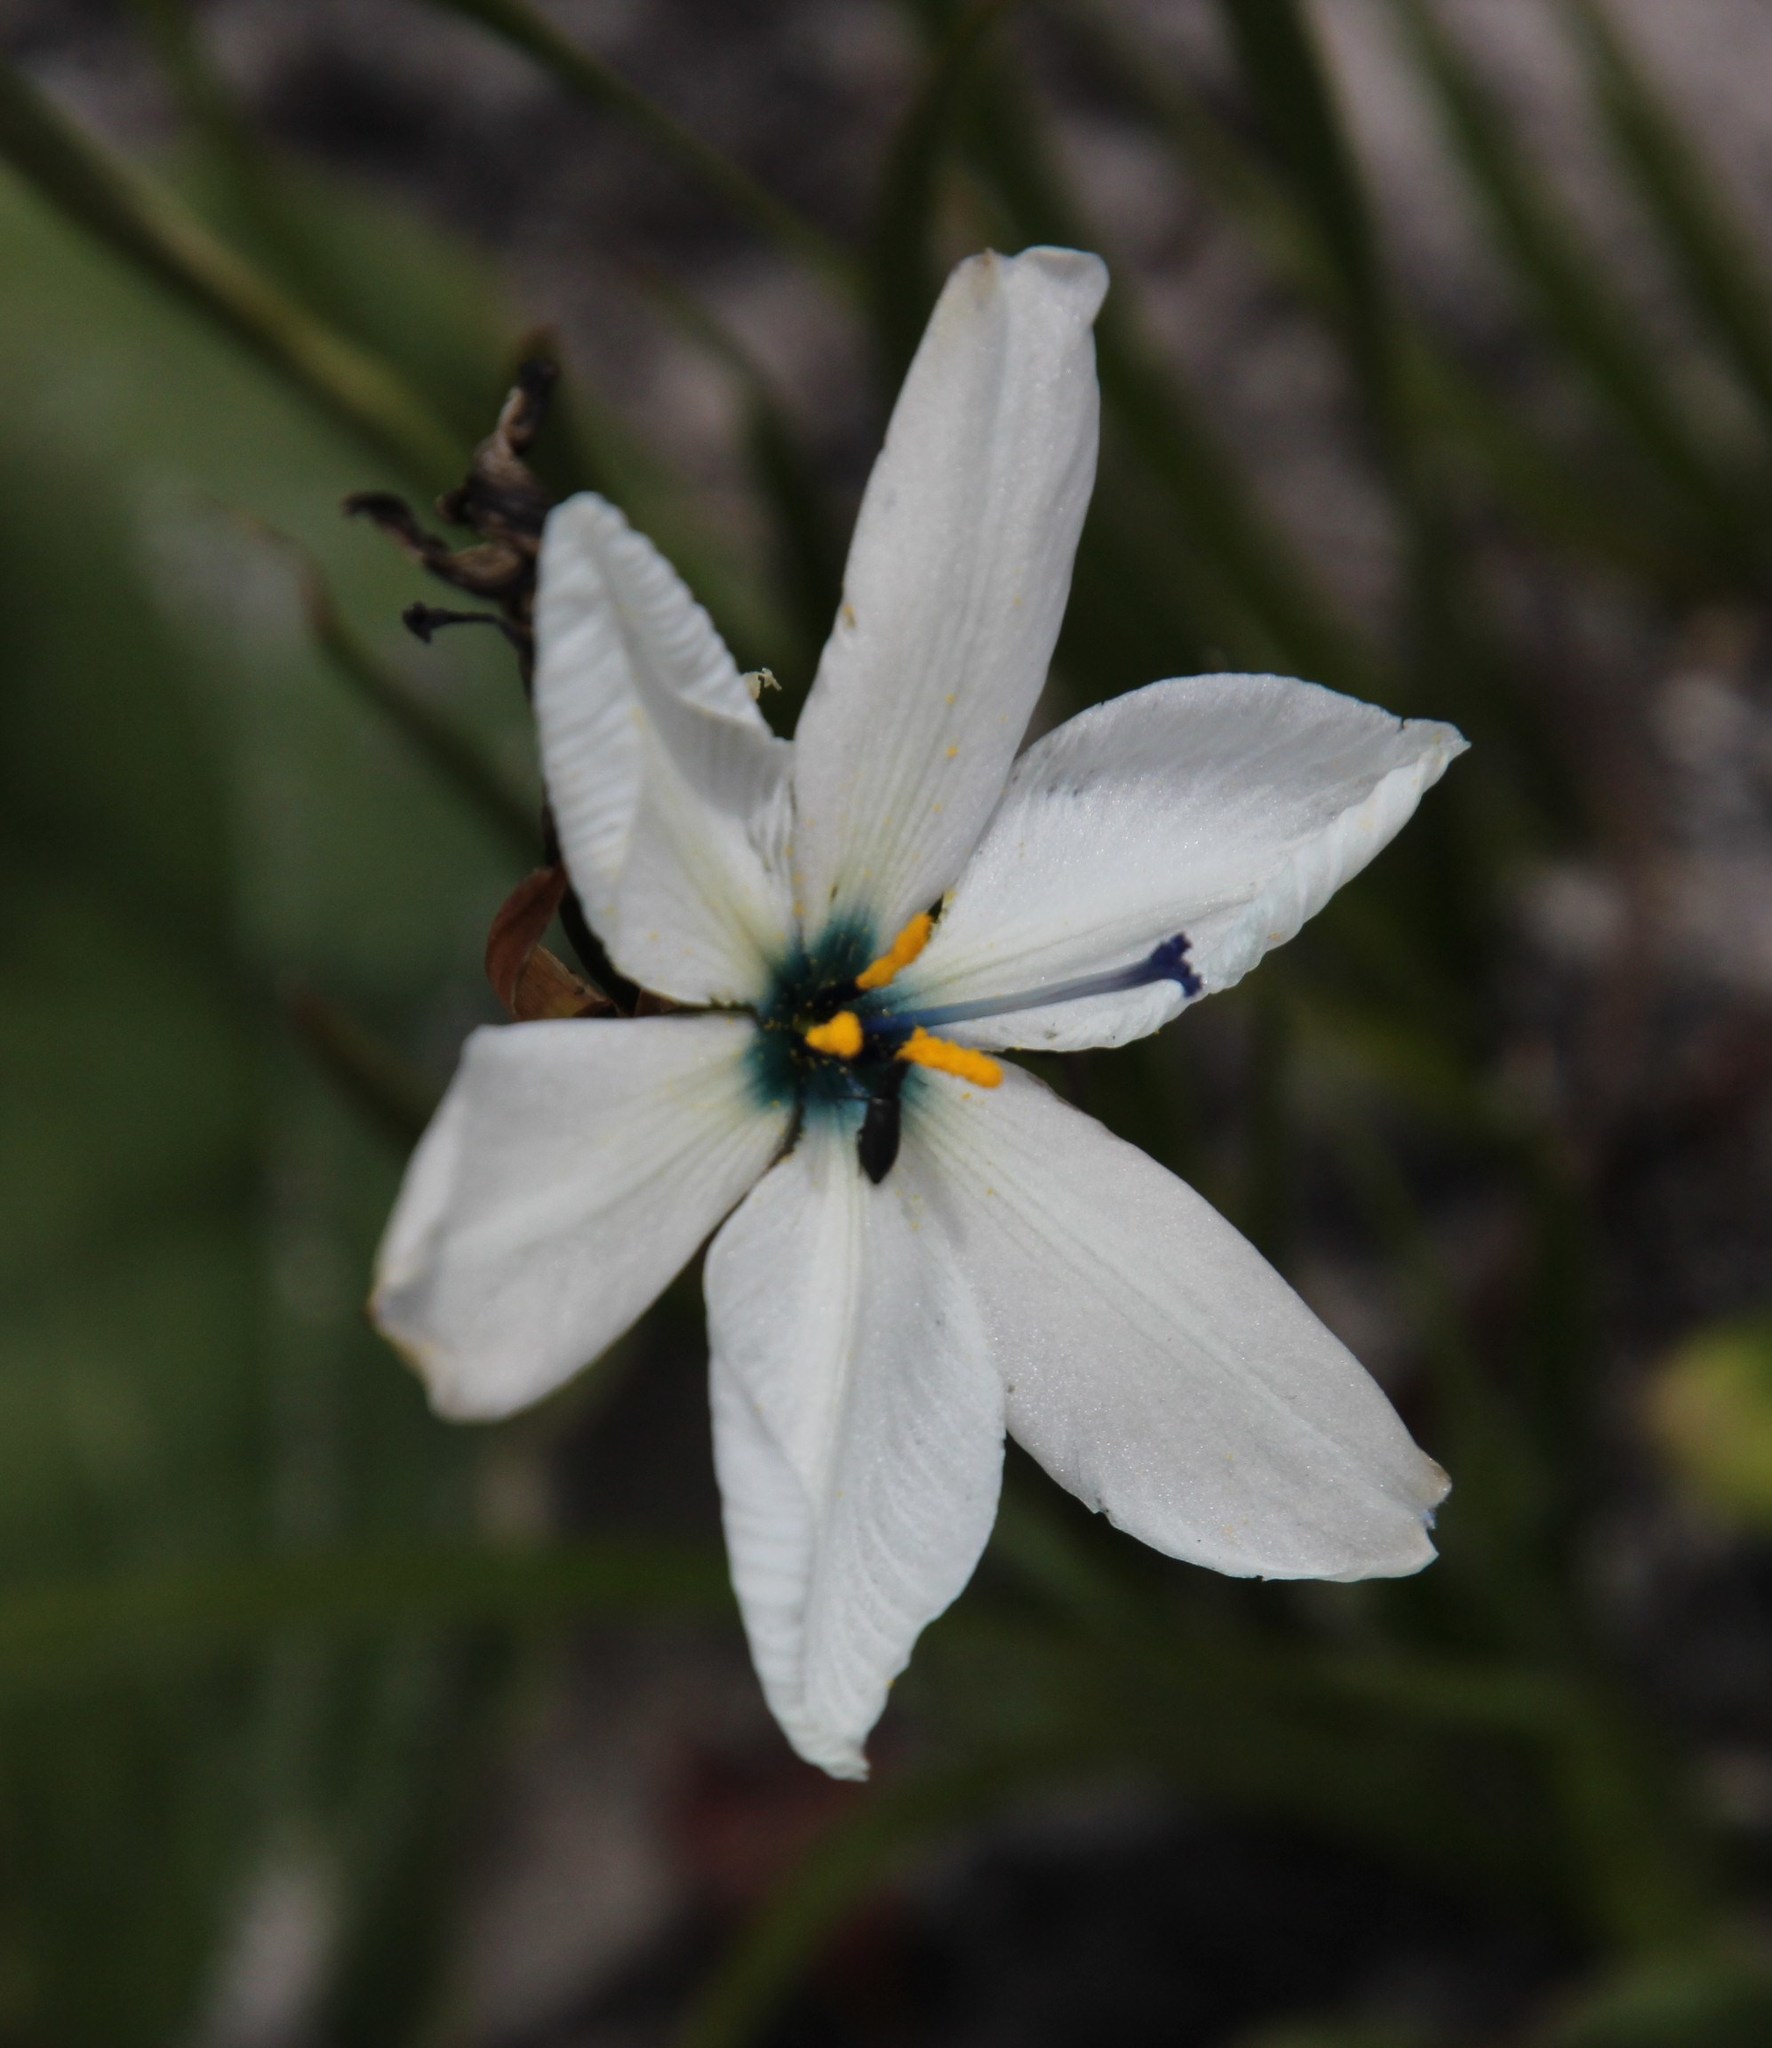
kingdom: Plantae
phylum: Tracheophyta
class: Liliopsida
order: Asparagales
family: Iridaceae
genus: Aristea
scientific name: Aristea cantharophila
